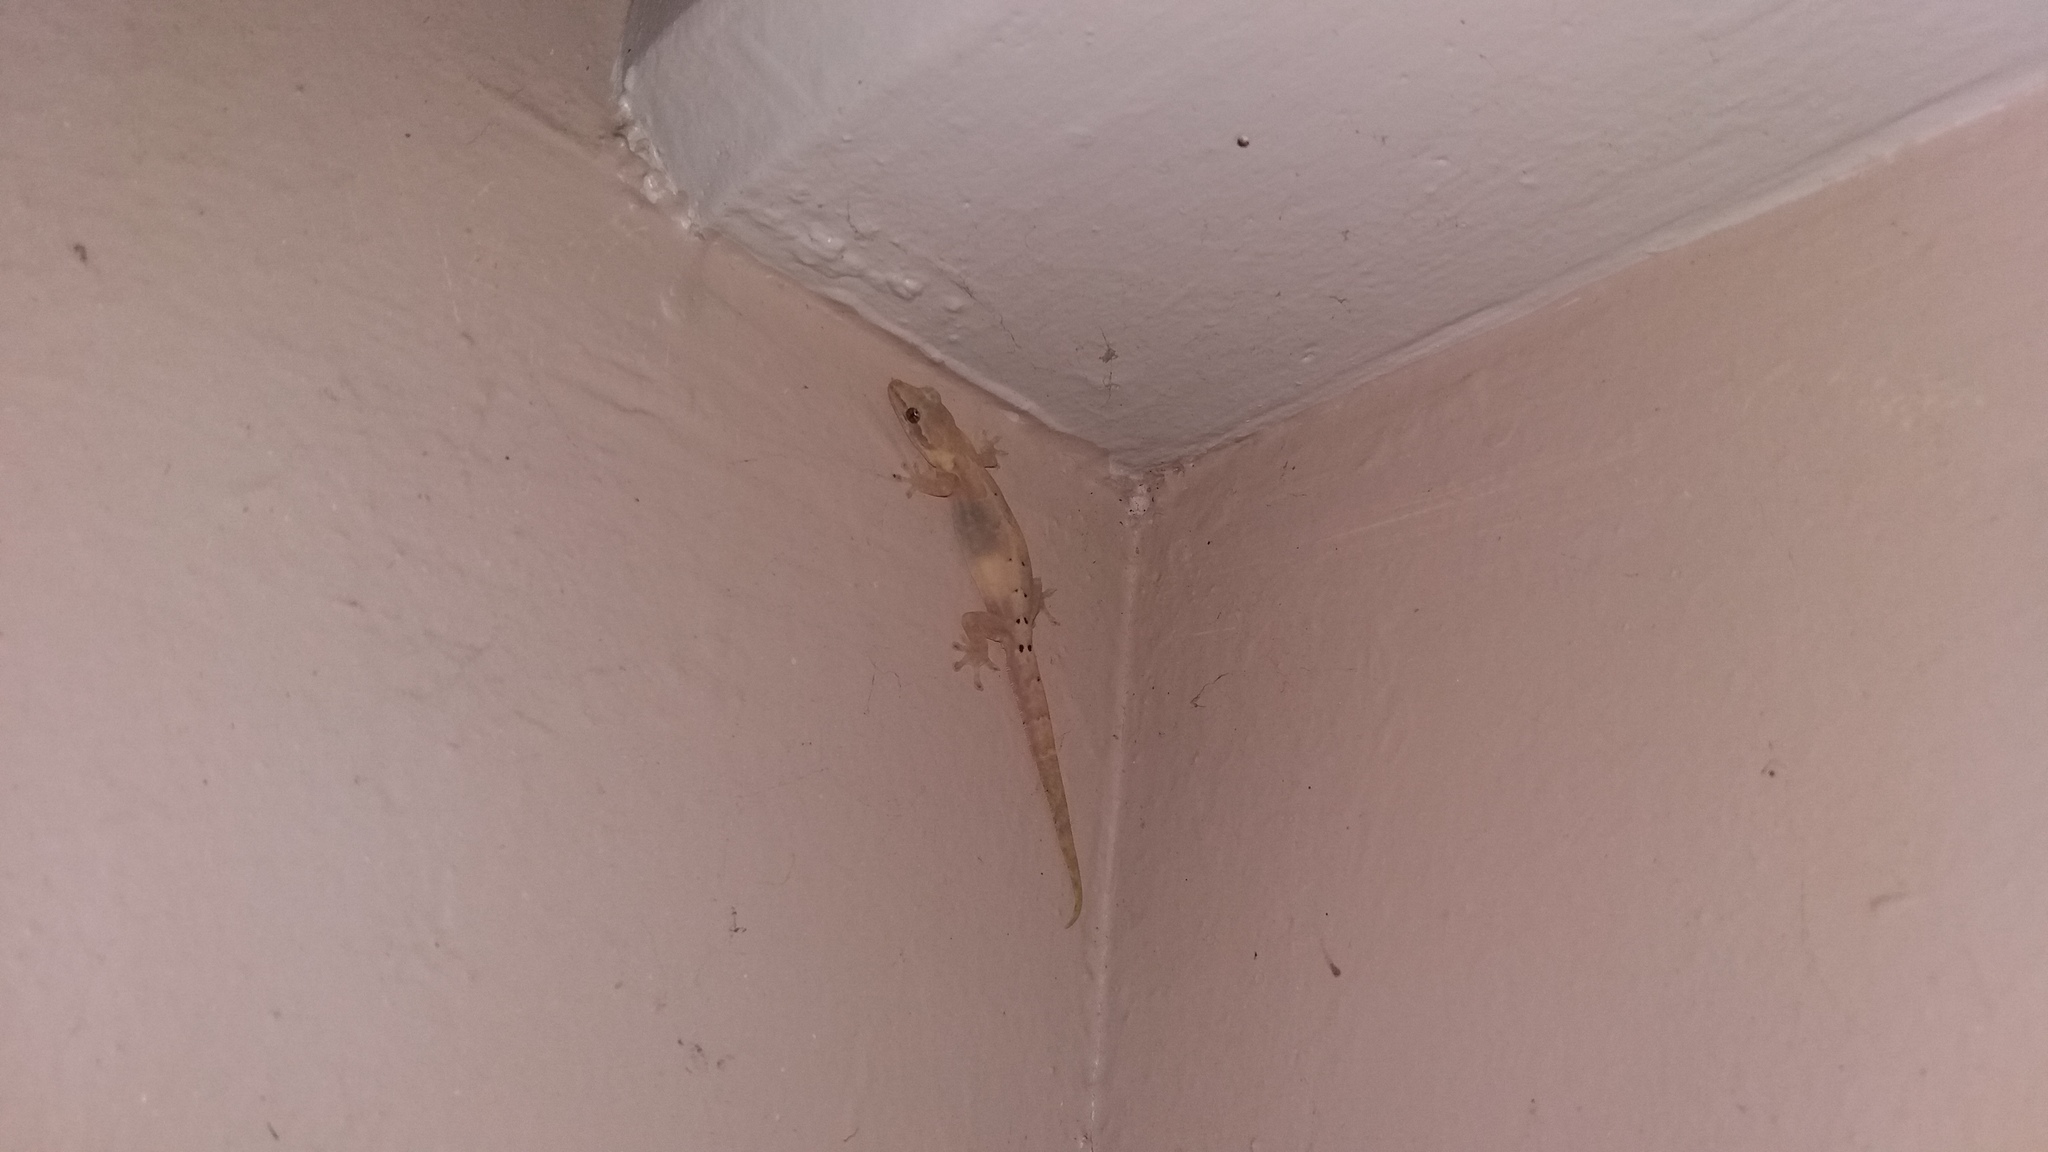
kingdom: Animalia
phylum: Chordata
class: Squamata
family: Gekkonidae
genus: Lepidodactylus
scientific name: Lepidodactylus lugubris
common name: Mourning gecko
